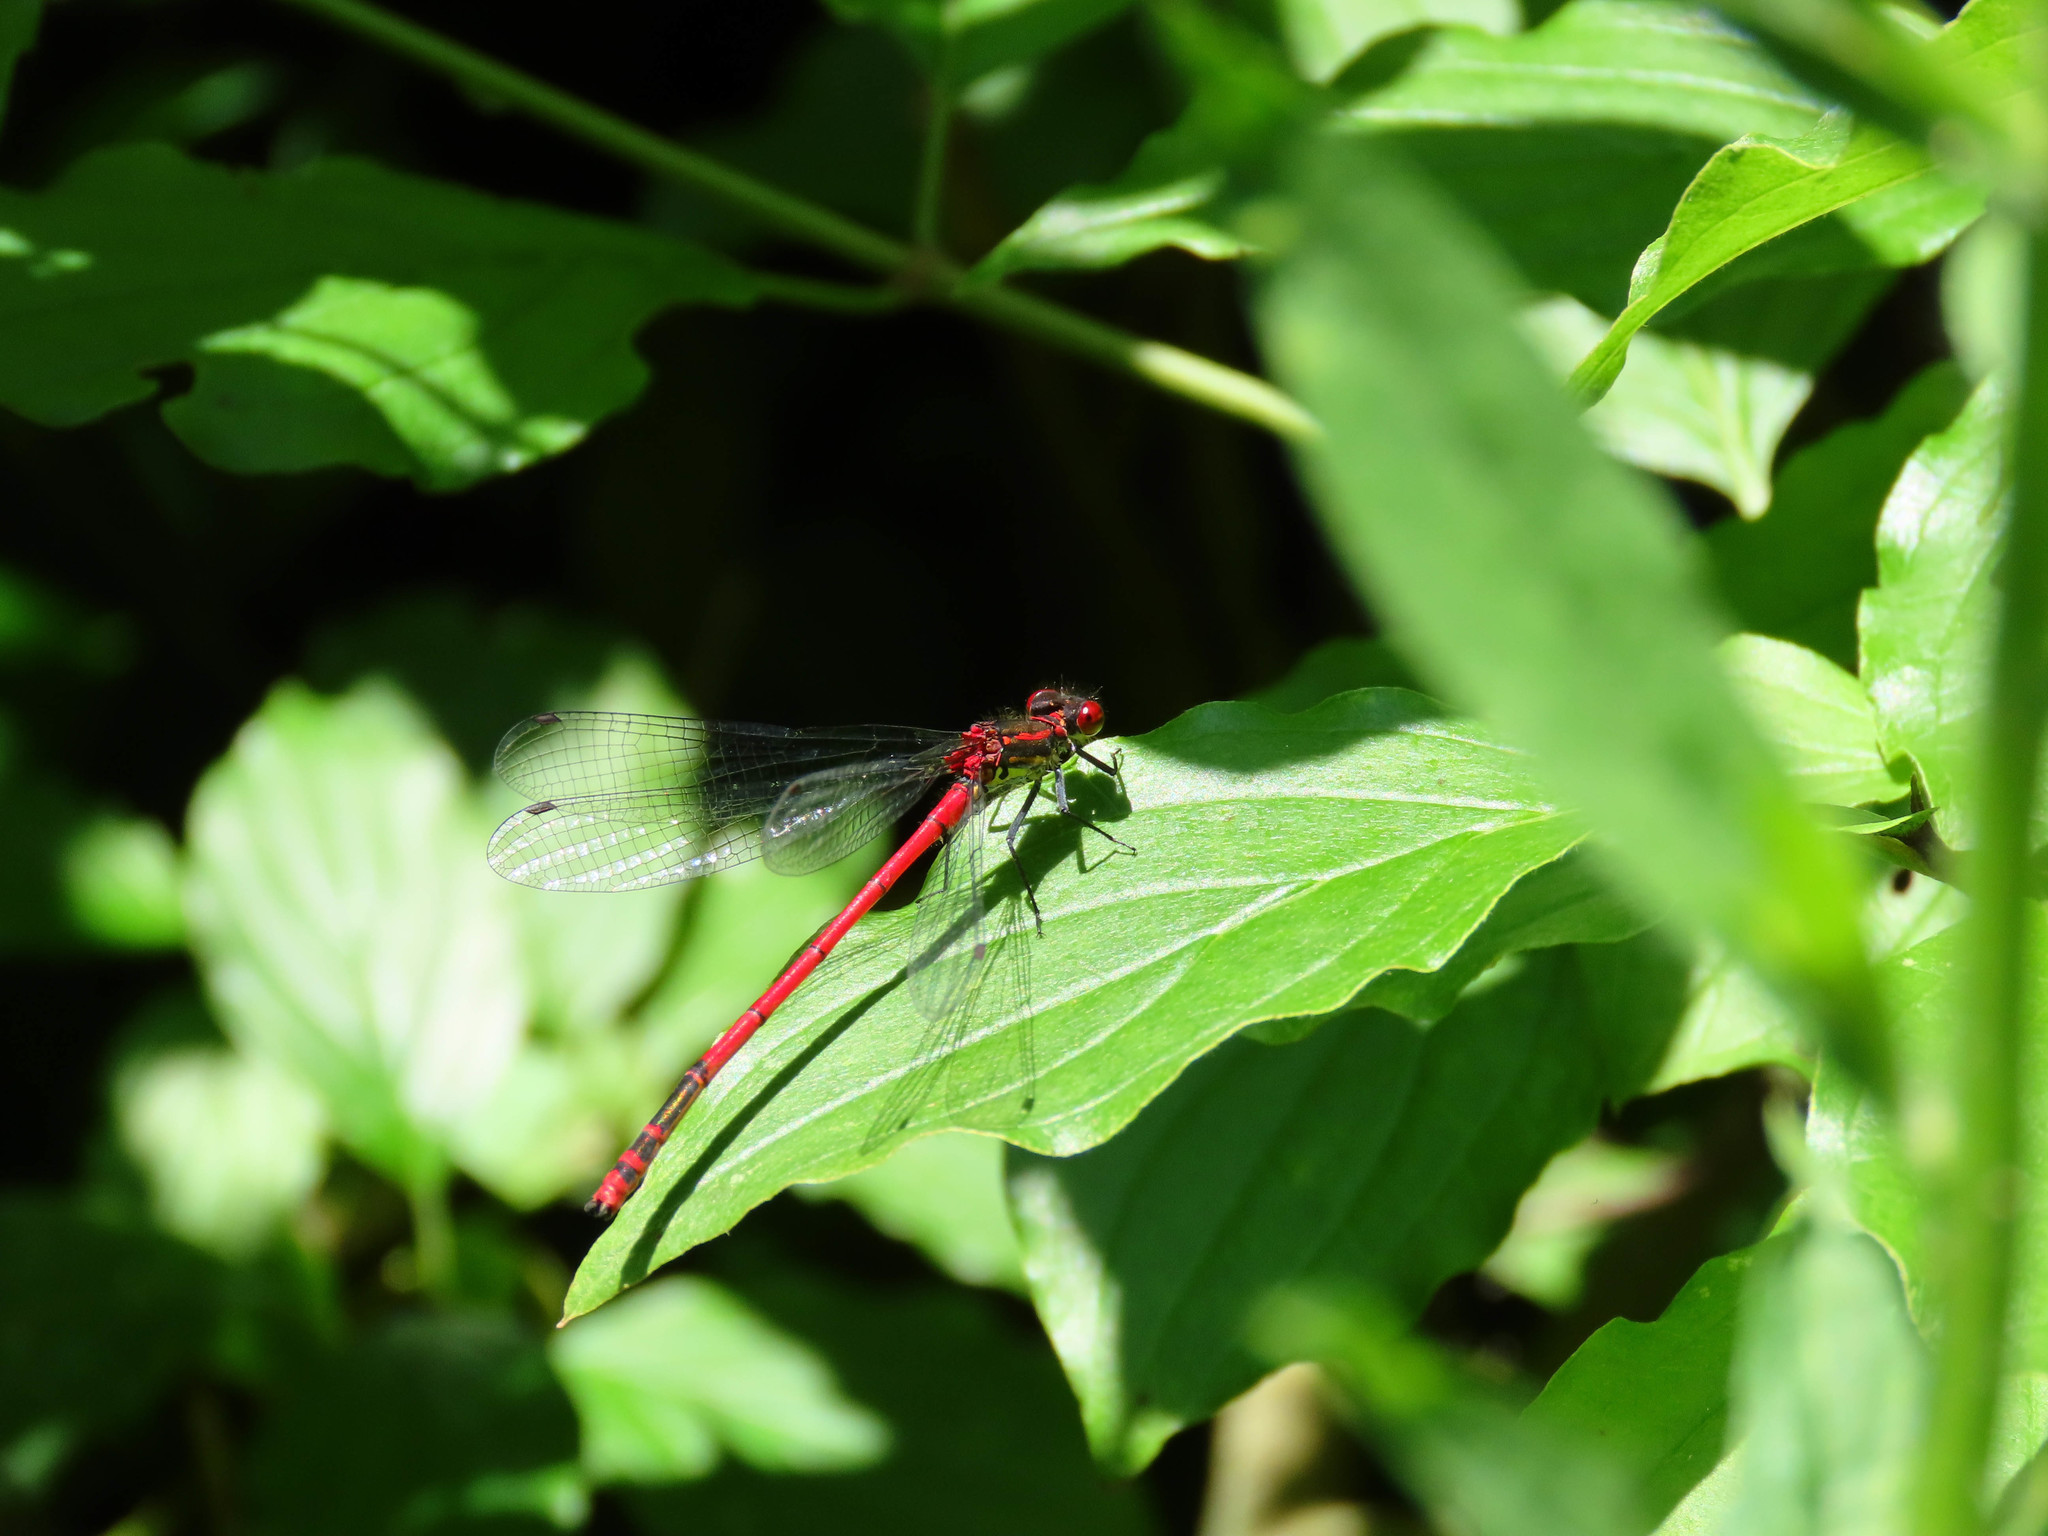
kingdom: Animalia
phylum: Arthropoda
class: Insecta
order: Odonata
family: Coenagrionidae
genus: Pyrrhosoma
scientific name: Pyrrhosoma nymphula
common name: Large red damsel
